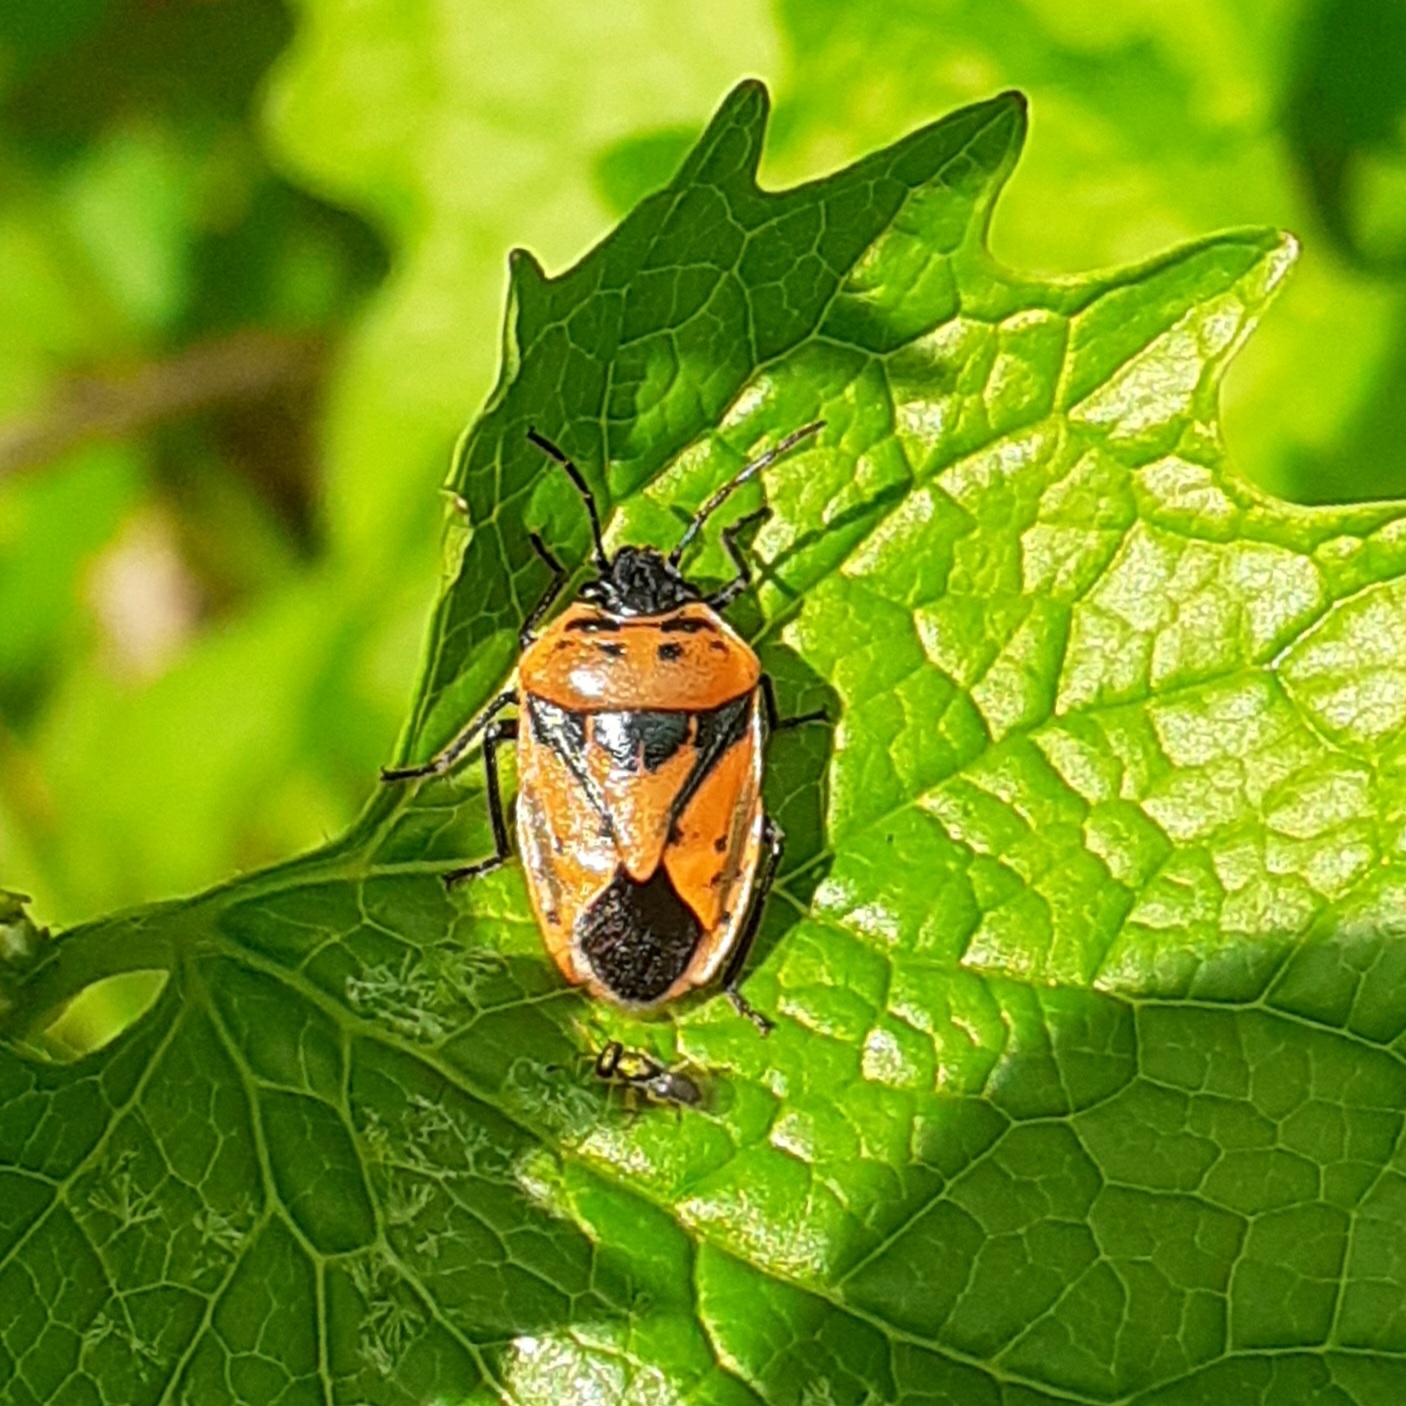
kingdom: Animalia
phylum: Arthropoda
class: Insecta
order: Hemiptera
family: Pentatomidae
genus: Eurydema
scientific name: Eurydema ornata
